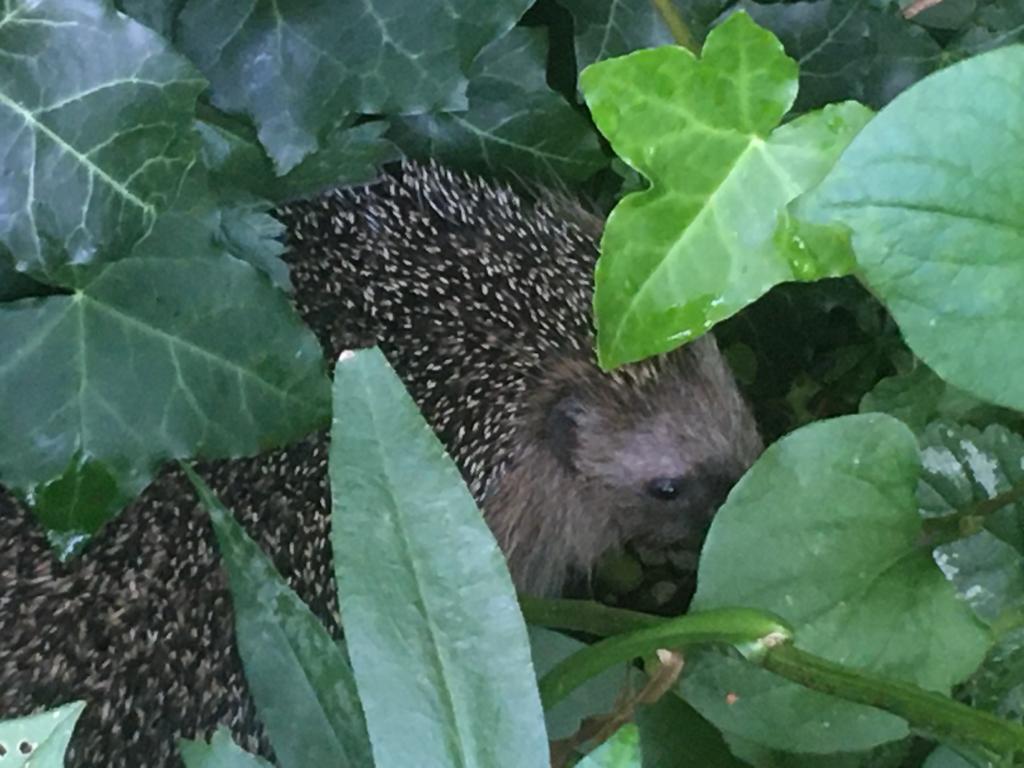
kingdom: Animalia
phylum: Chordata
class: Mammalia
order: Erinaceomorpha
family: Erinaceidae
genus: Erinaceus
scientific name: Erinaceus europaeus
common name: West european hedgehog
